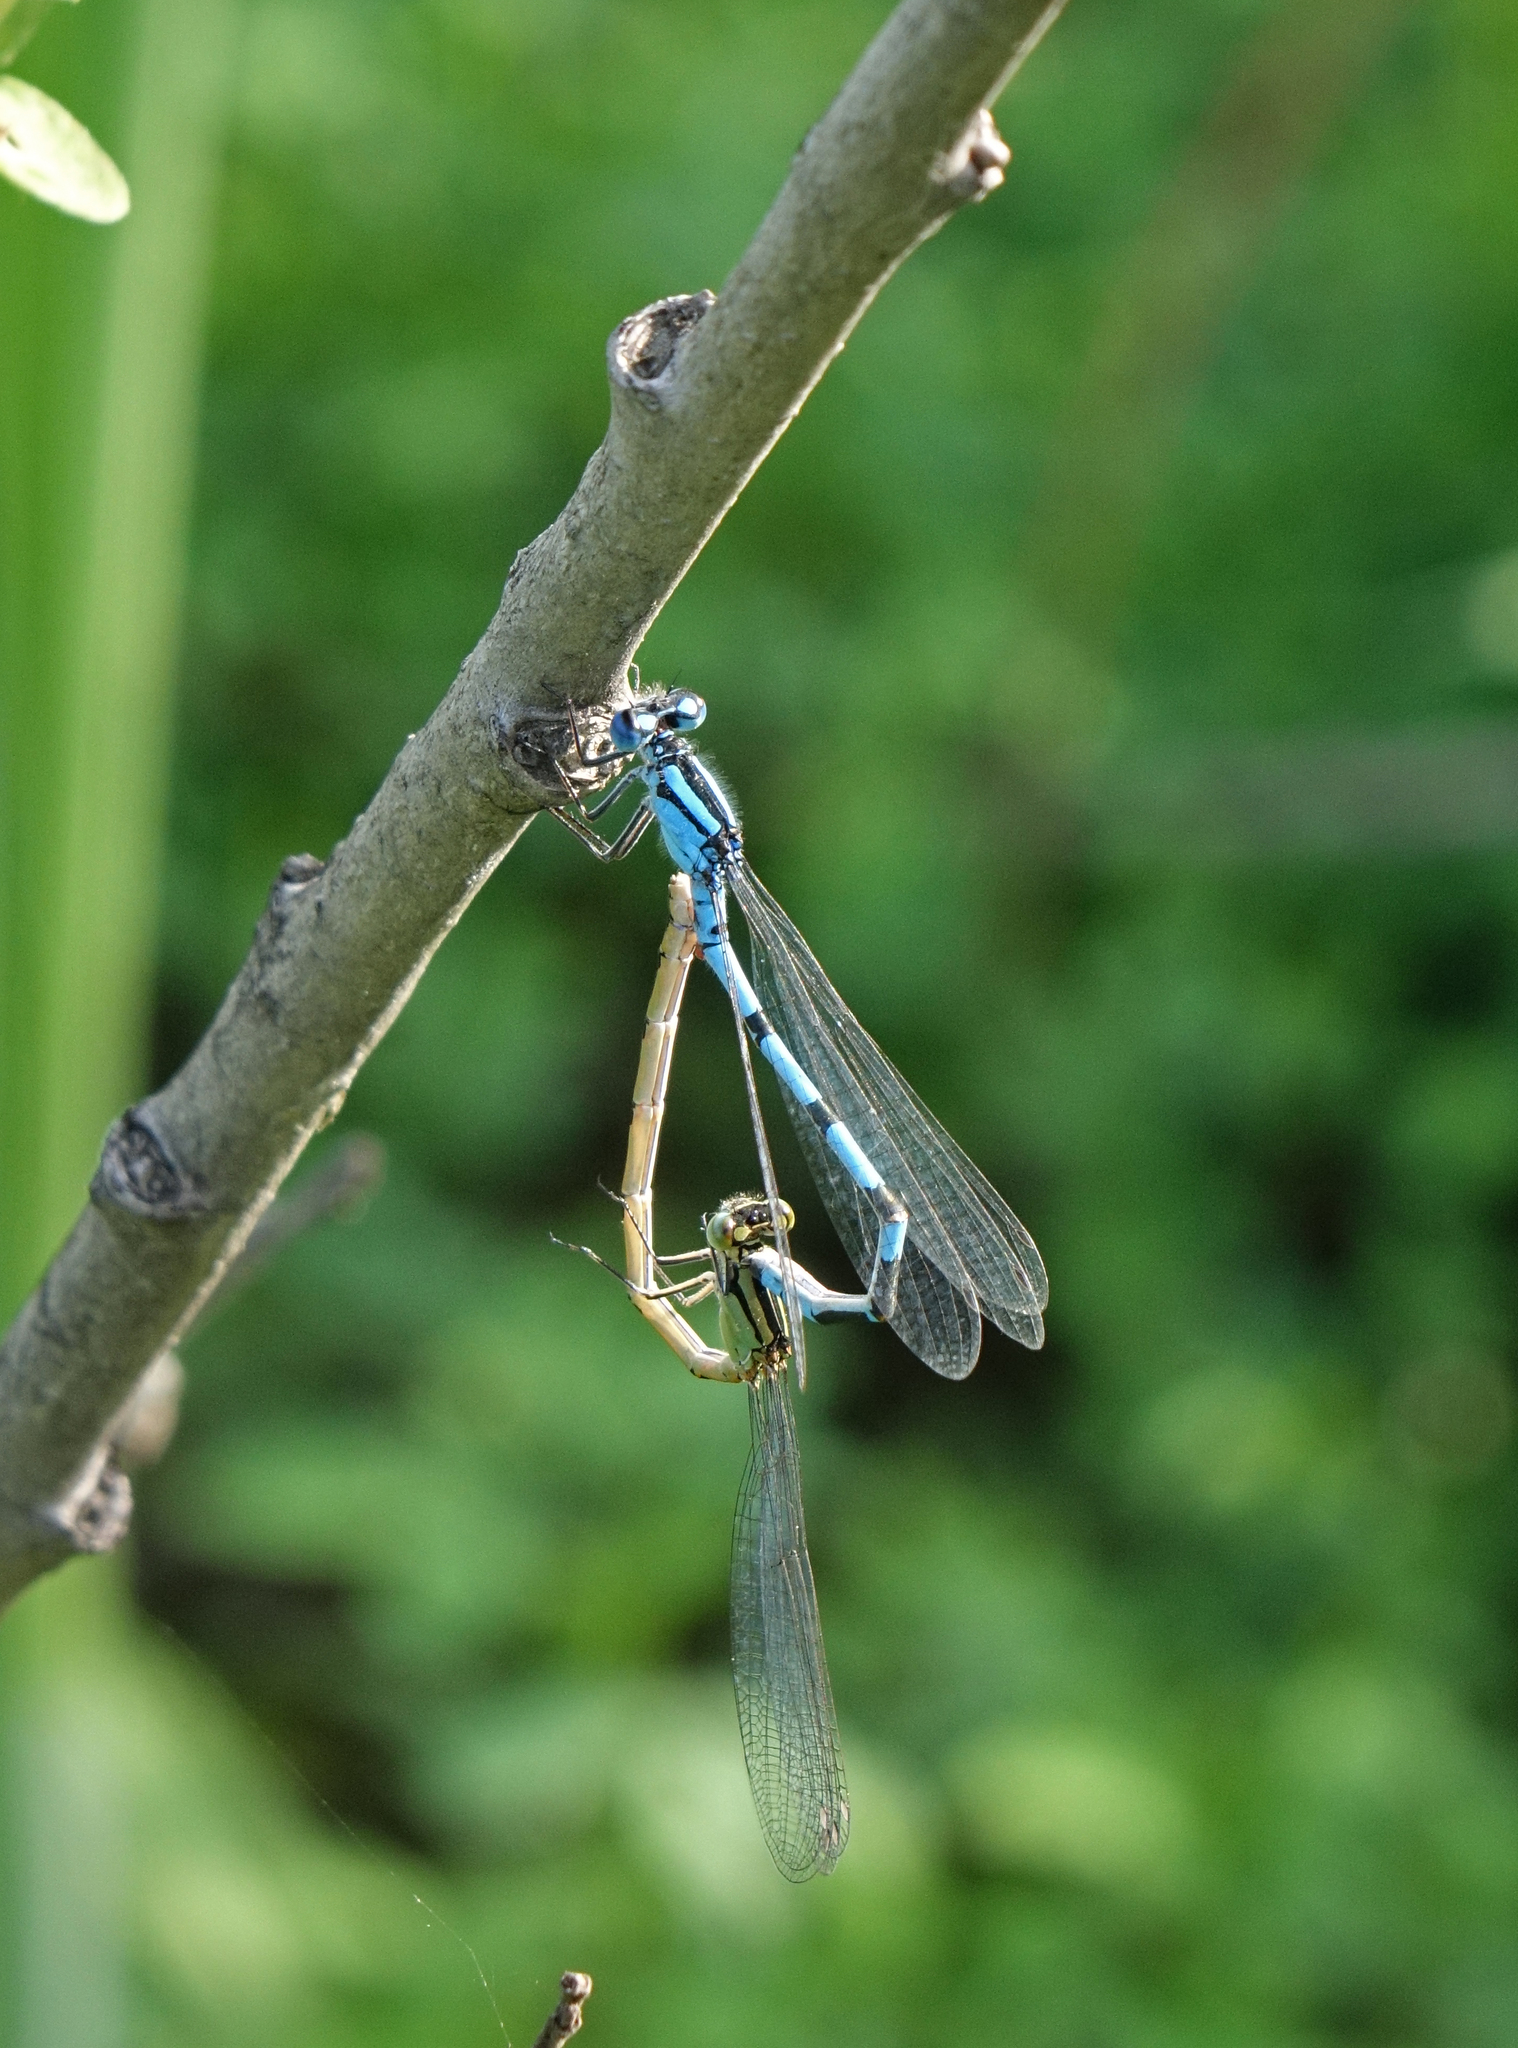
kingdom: Animalia
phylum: Arthropoda
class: Insecta
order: Odonata
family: Coenagrionidae
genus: Enallagma
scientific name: Enallagma cyathigerum
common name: Common blue damselfly
